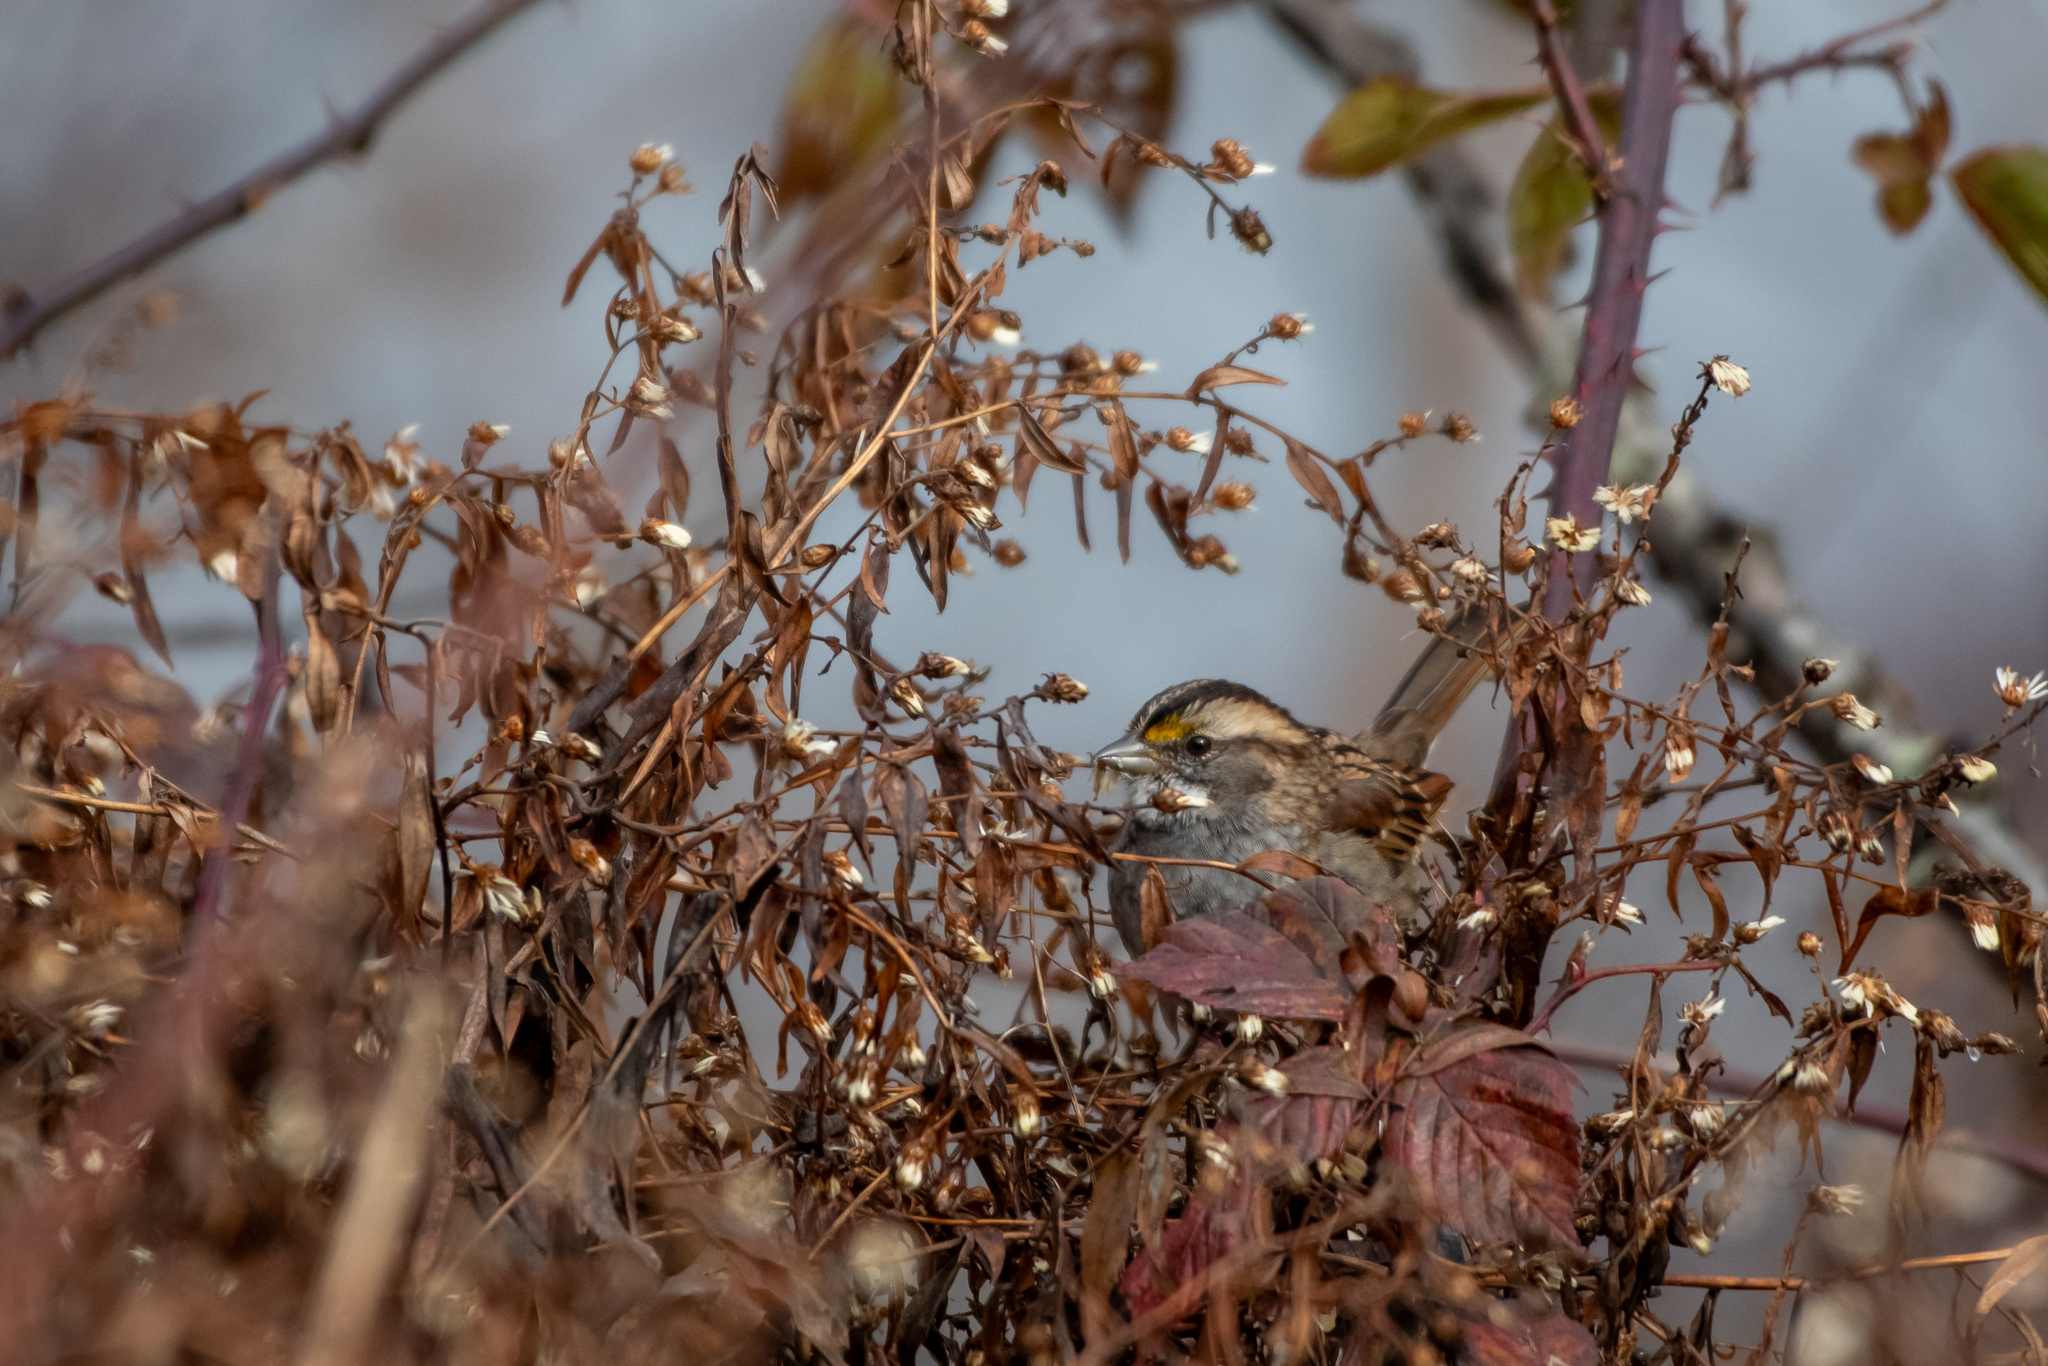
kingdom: Animalia
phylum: Chordata
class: Aves
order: Passeriformes
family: Passerellidae
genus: Zonotrichia
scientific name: Zonotrichia albicollis
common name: White-throated sparrow
